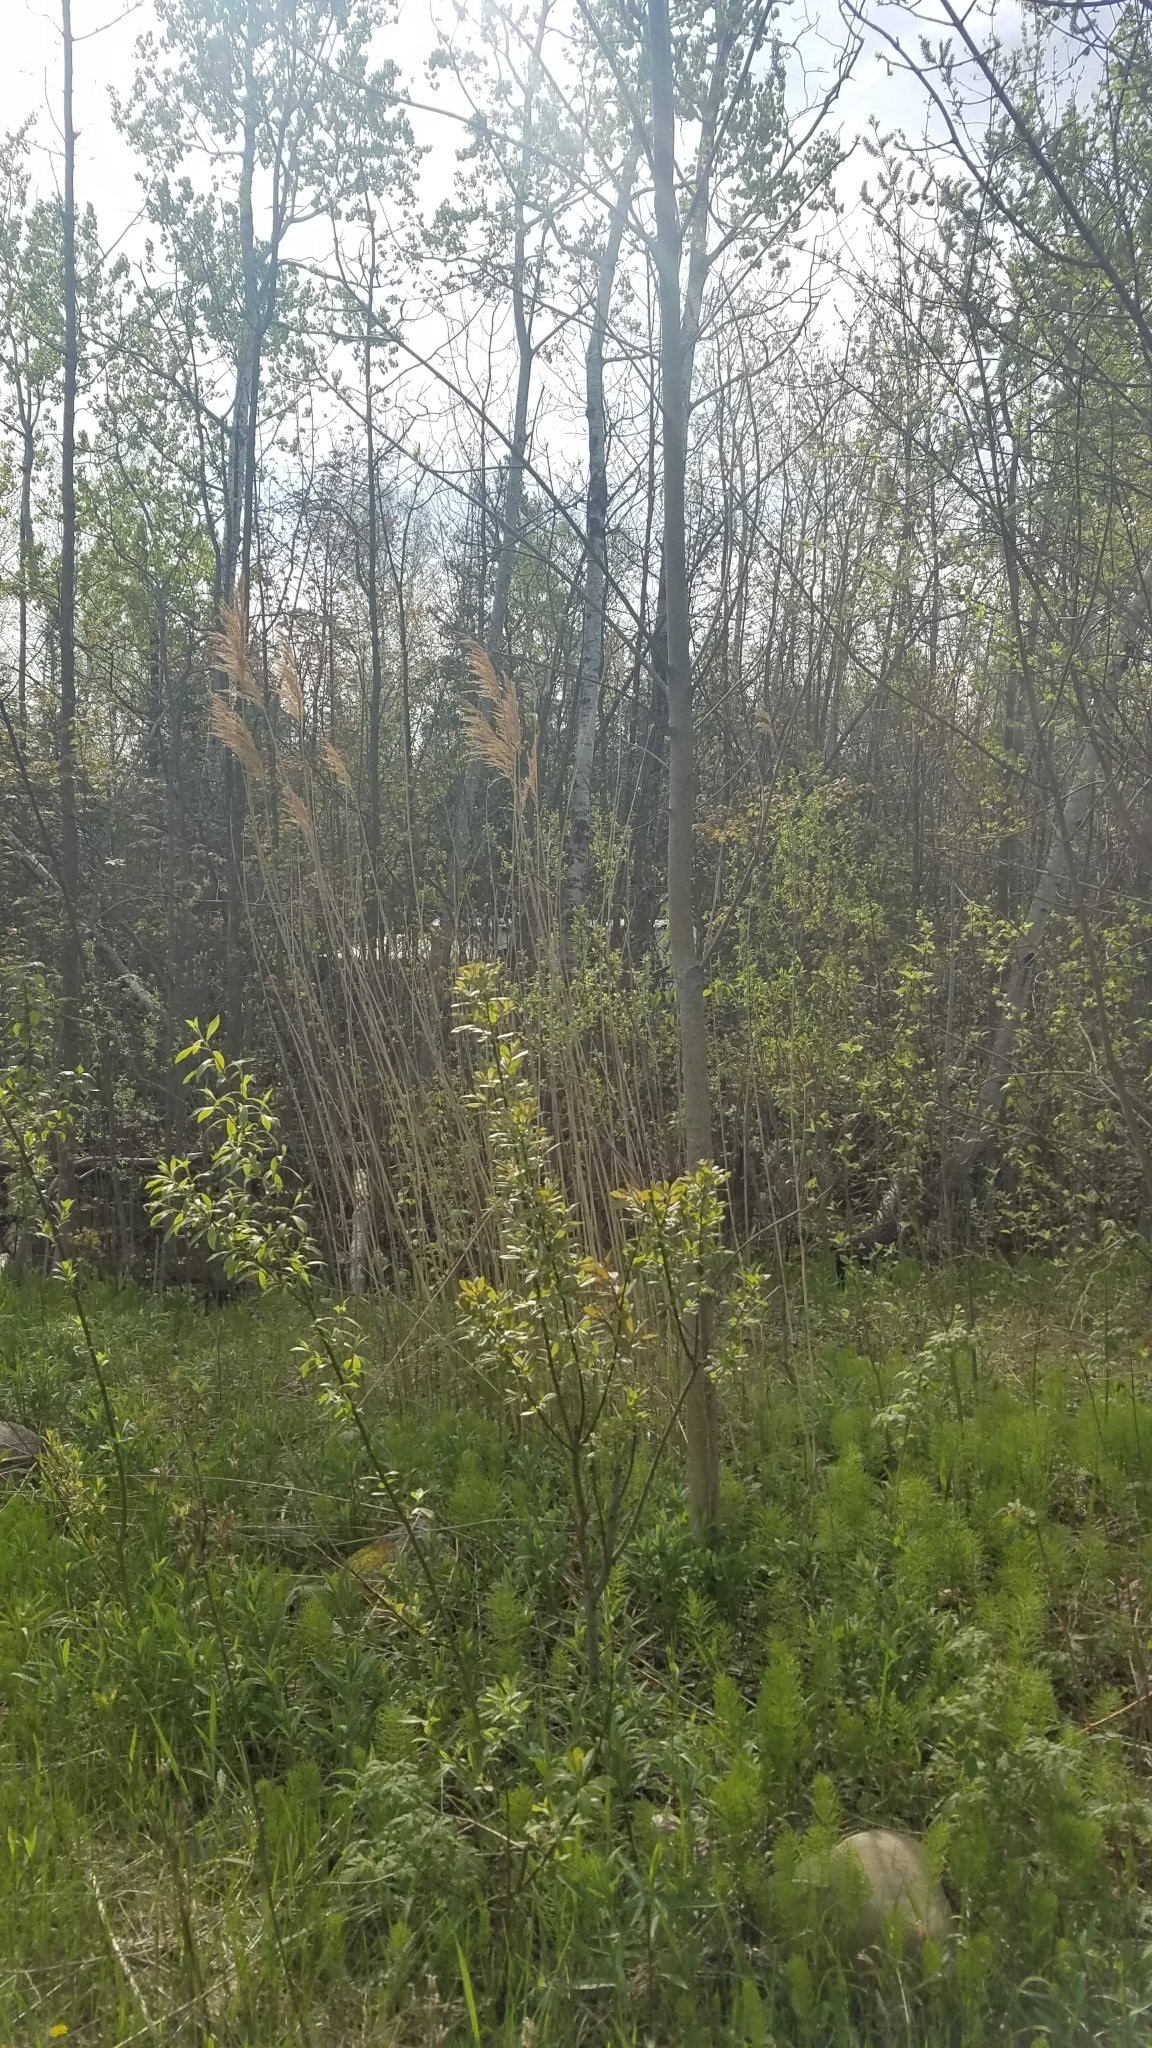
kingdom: Plantae
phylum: Tracheophyta
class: Liliopsida
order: Poales
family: Poaceae
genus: Phragmites
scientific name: Phragmites australis
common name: Common reed
